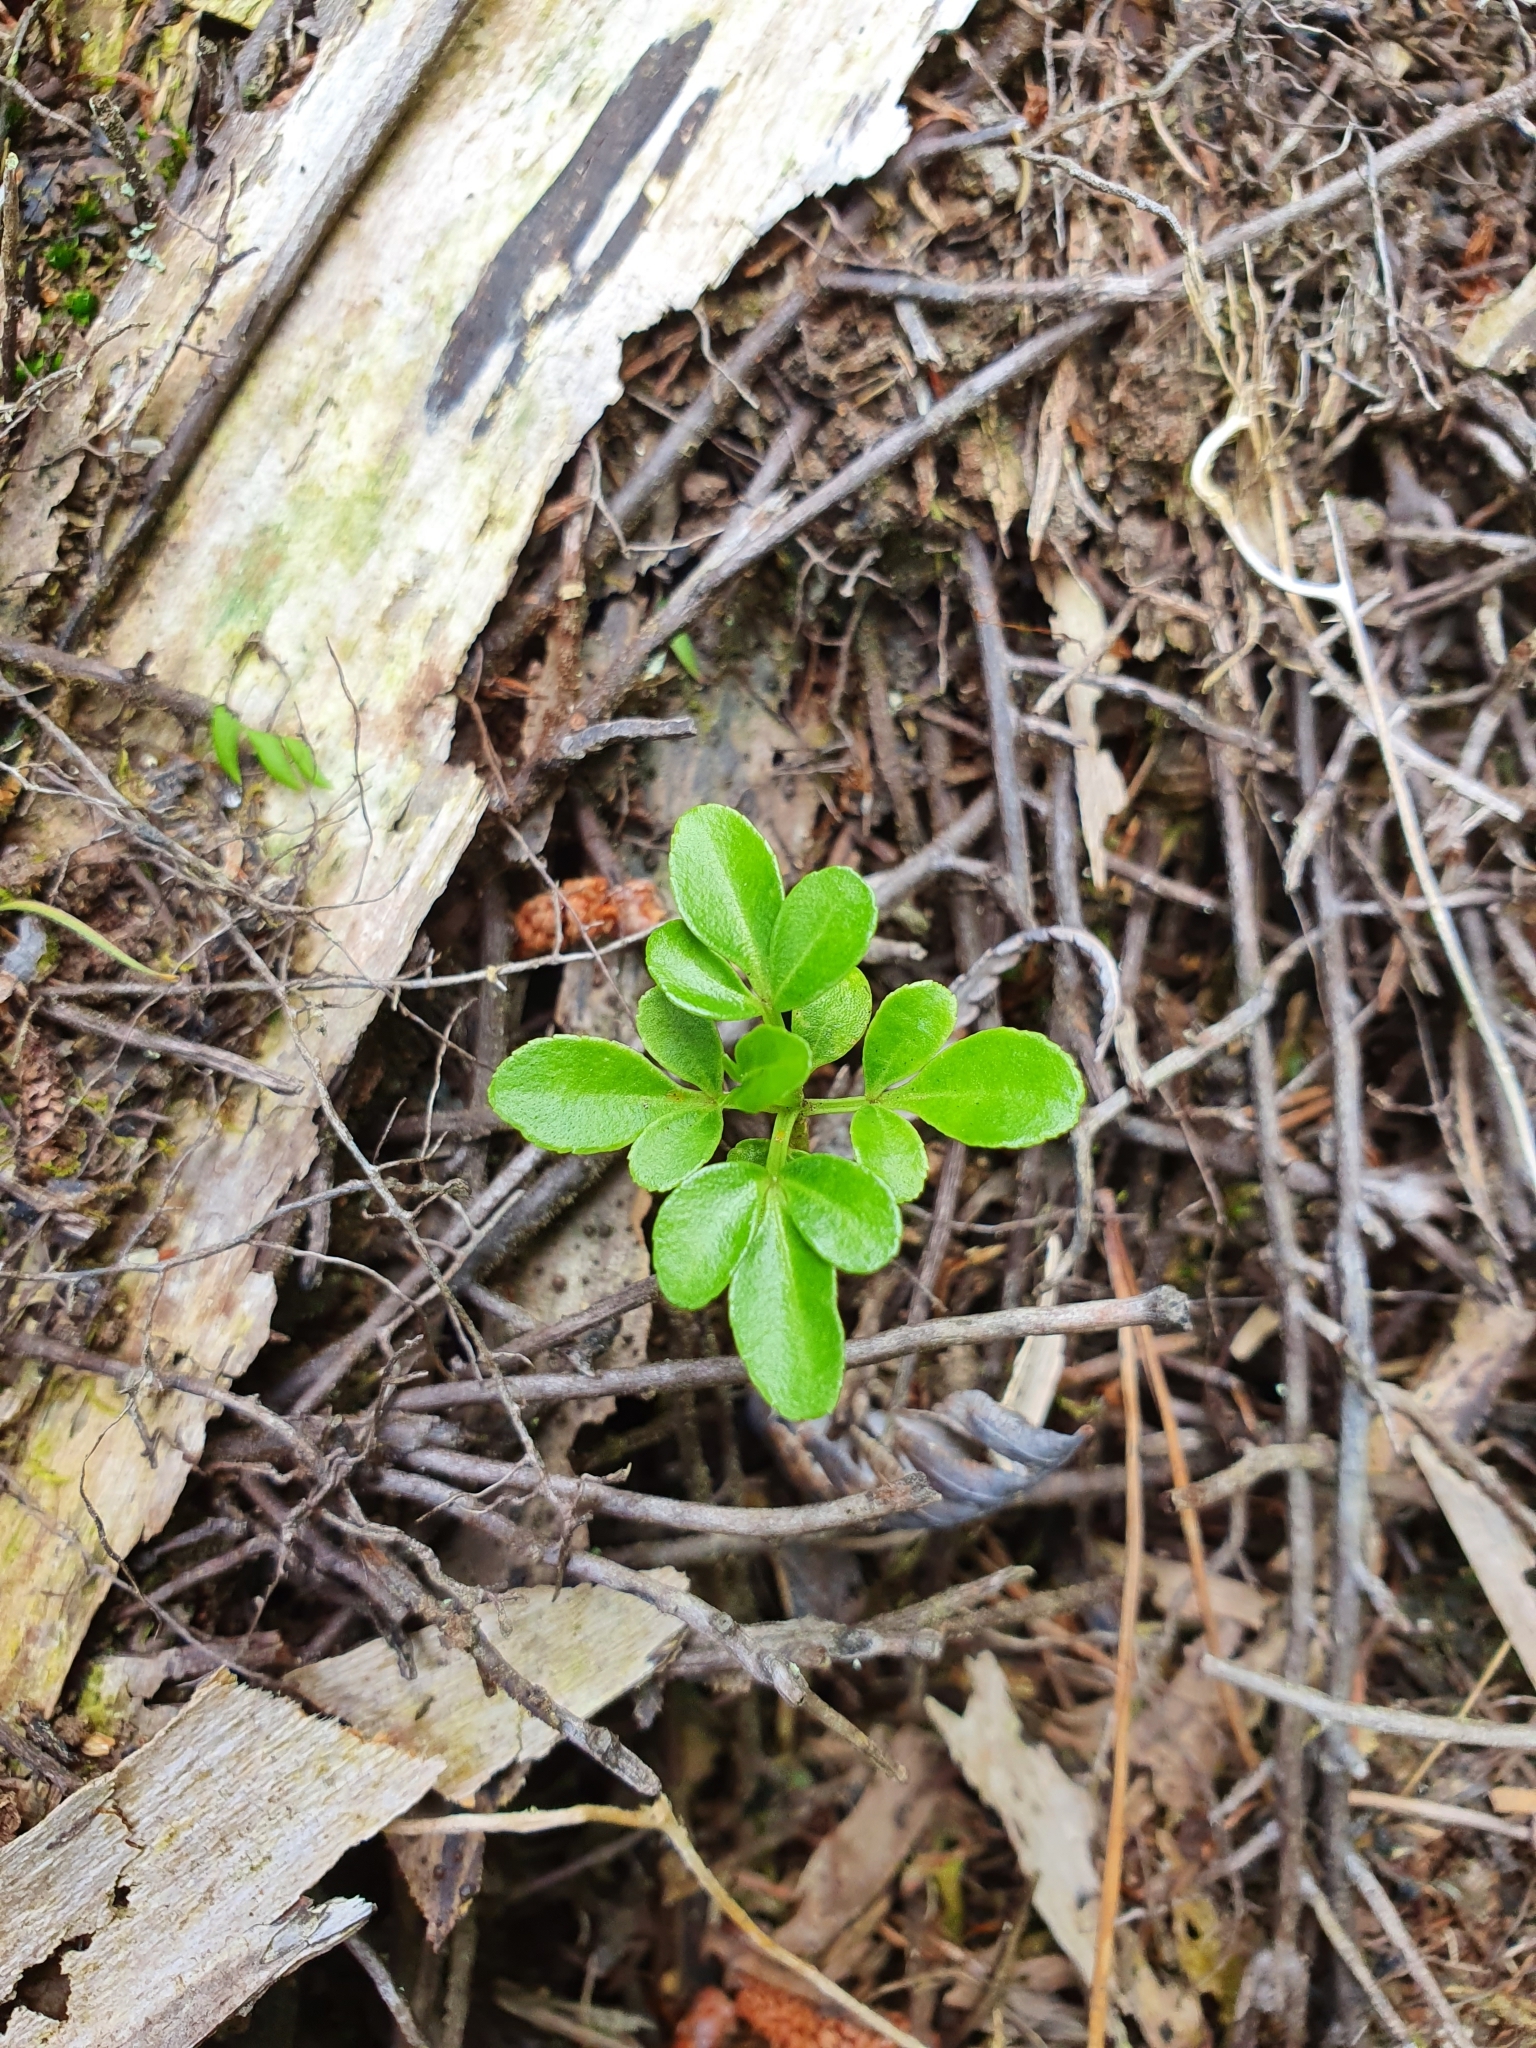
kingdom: Plantae
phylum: Tracheophyta
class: Magnoliopsida
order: Sapindales
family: Rutaceae
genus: Melicope
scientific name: Melicope ternata
